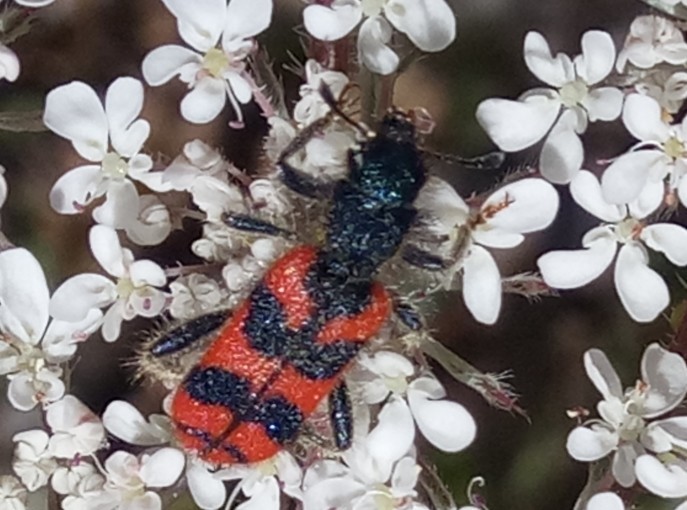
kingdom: Animalia
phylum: Arthropoda
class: Insecta
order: Coleoptera
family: Cleridae
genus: Trichodes
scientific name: Trichodes umbellatarum
